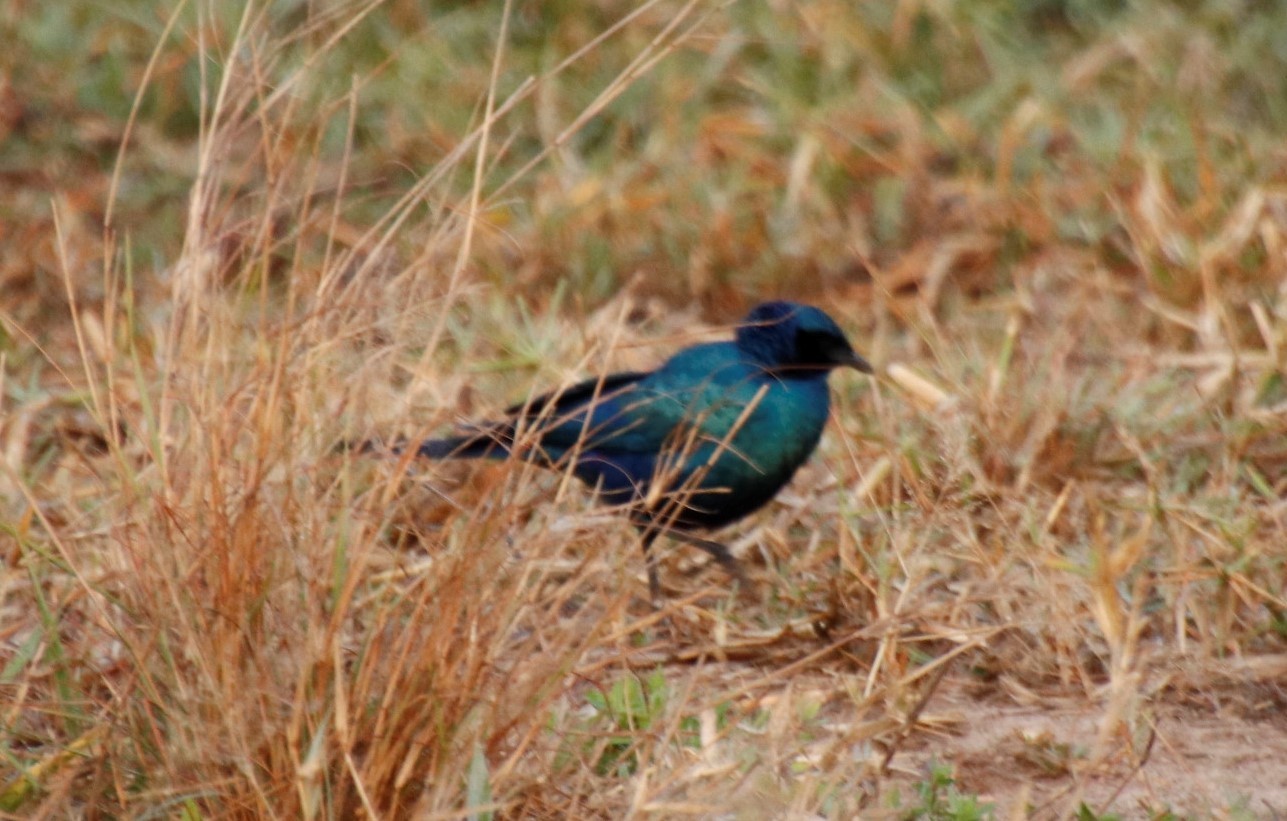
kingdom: Animalia
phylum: Chordata
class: Aves
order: Passeriformes
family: Sturnidae
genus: Lamprotornis
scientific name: Lamprotornis australis
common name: Burchell's starling
